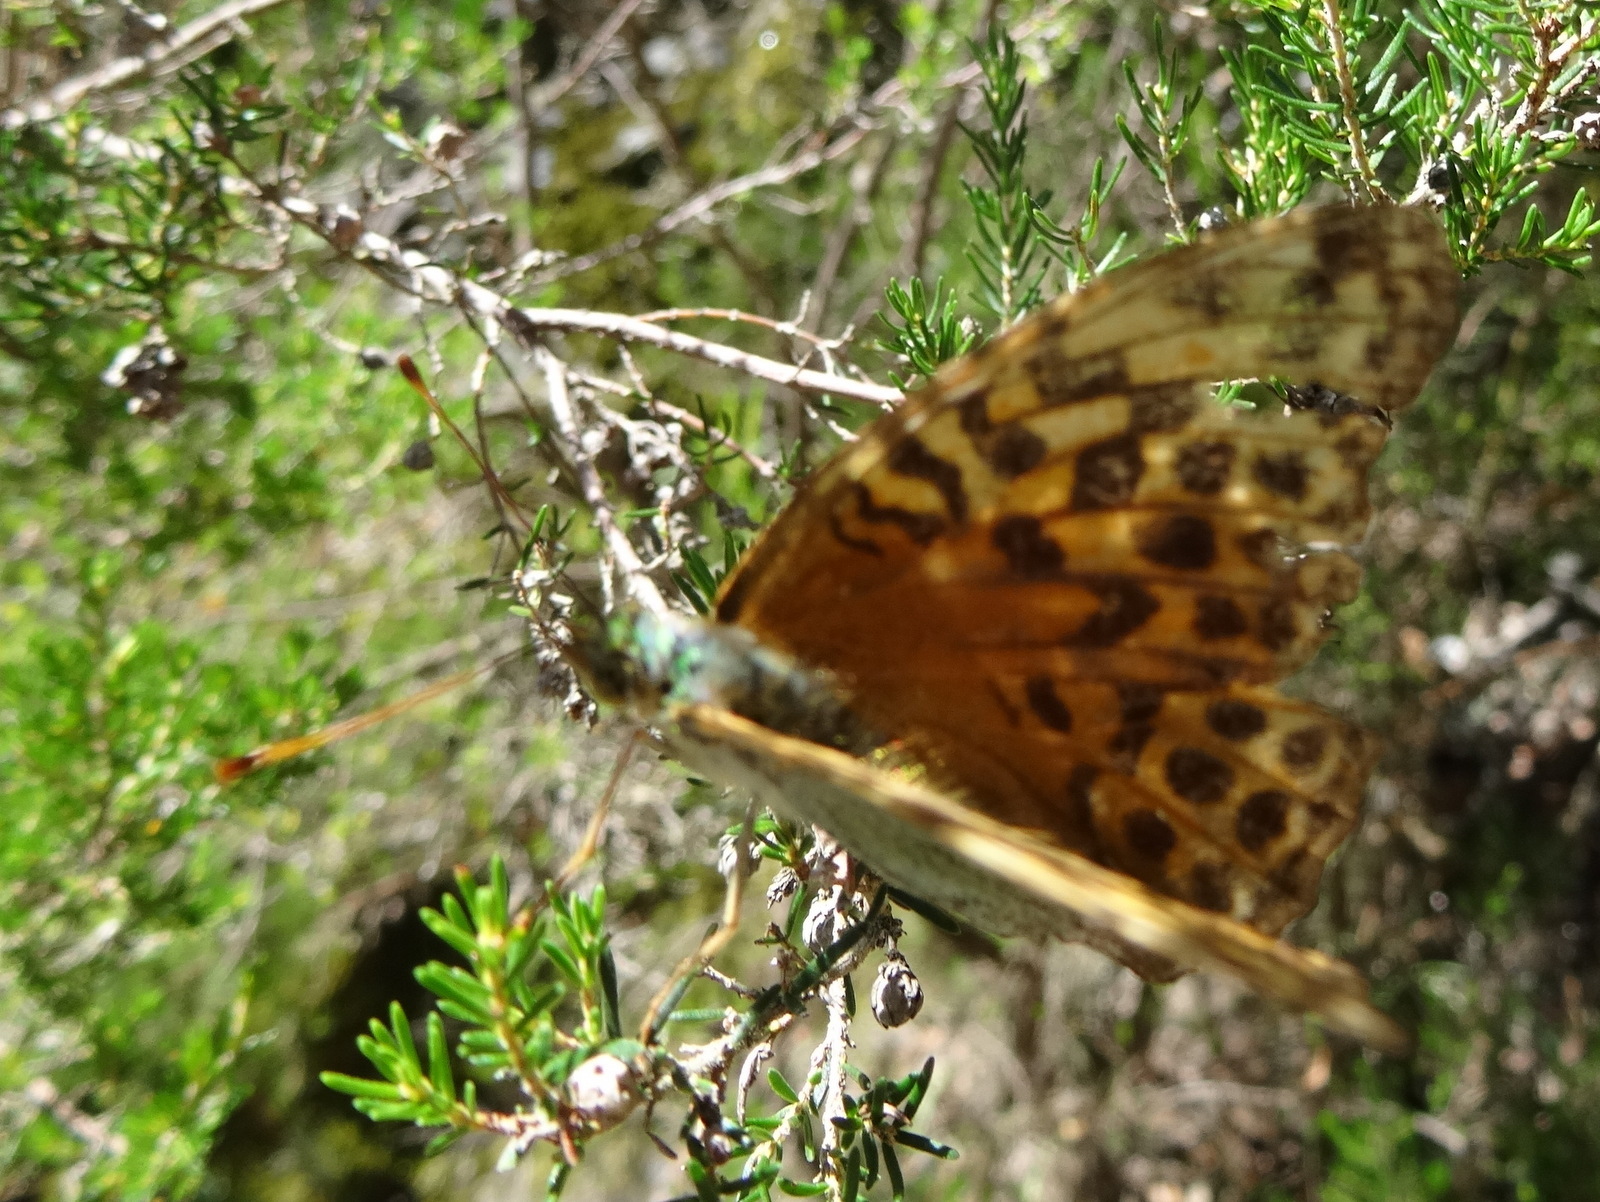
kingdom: Animalia
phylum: Arthropoda
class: Insecta
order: Lepidoptera
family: Nymphalidae
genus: Argynnis
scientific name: Argynnis paphia
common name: Silver-washed fritillary
